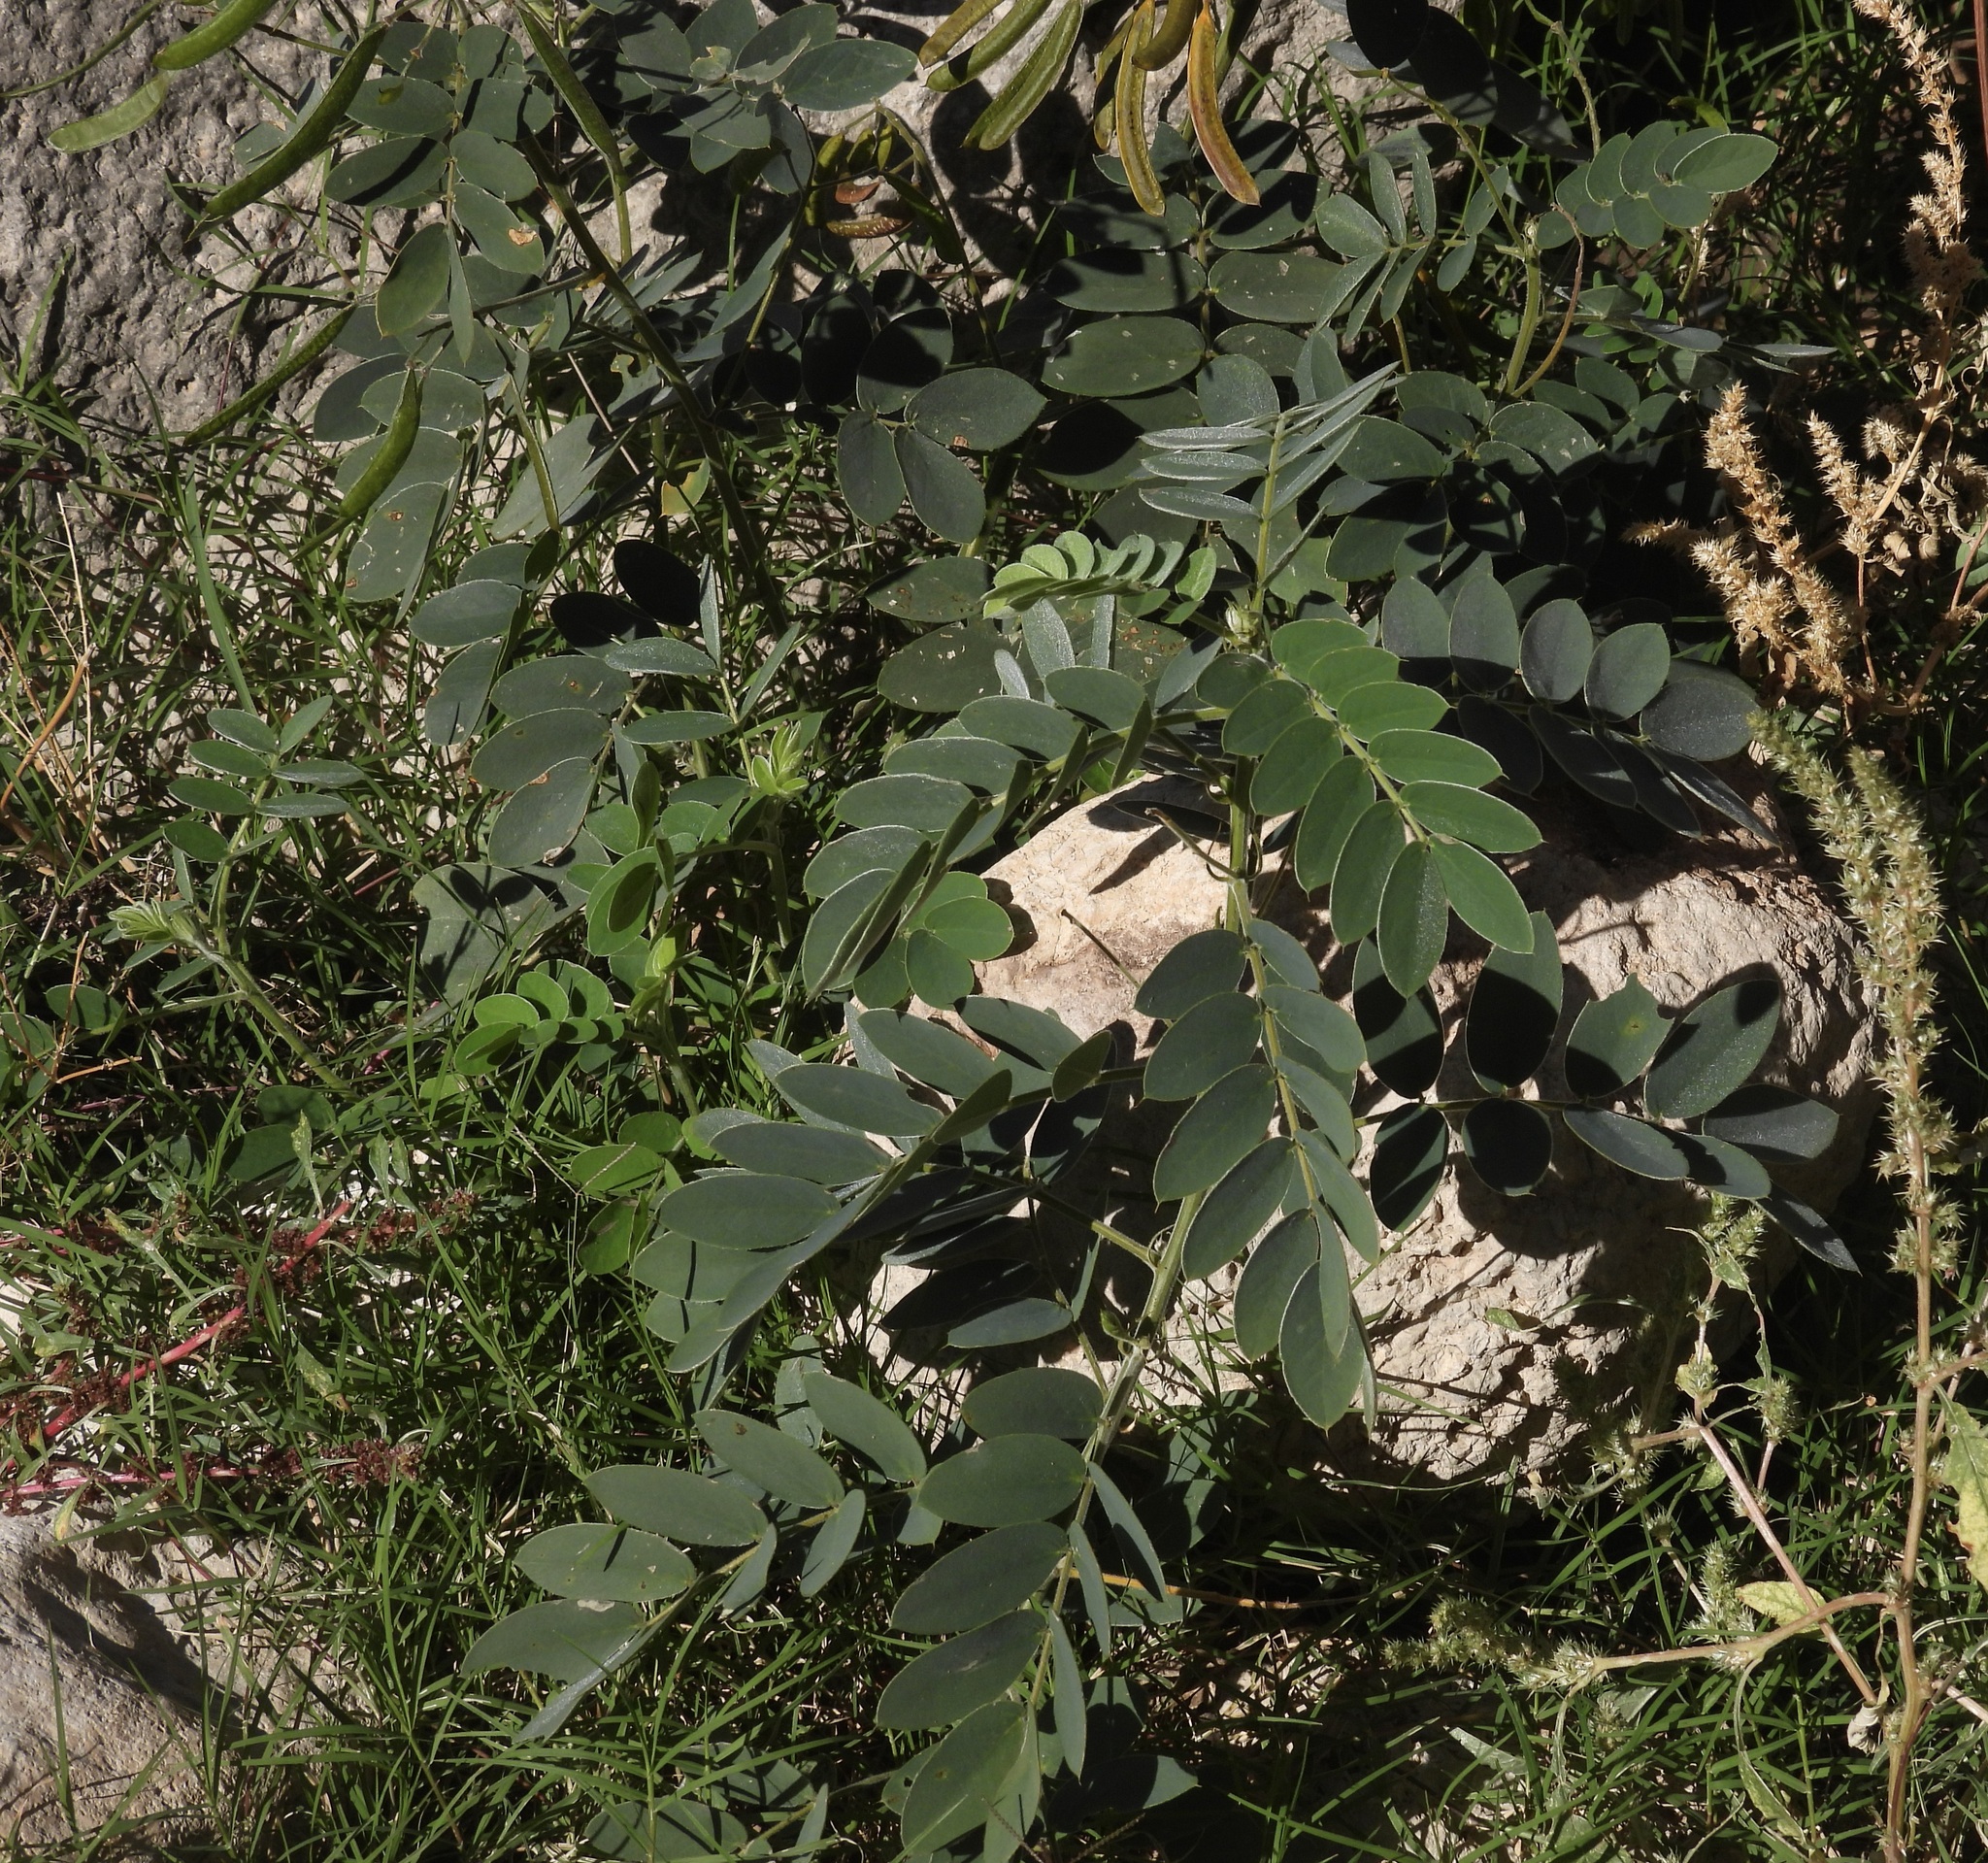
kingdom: Plantae
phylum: Tracheophyta
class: Magnoliopsida
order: Fabales
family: Fabaceae
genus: Senna
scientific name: Senna lindheimeriana
